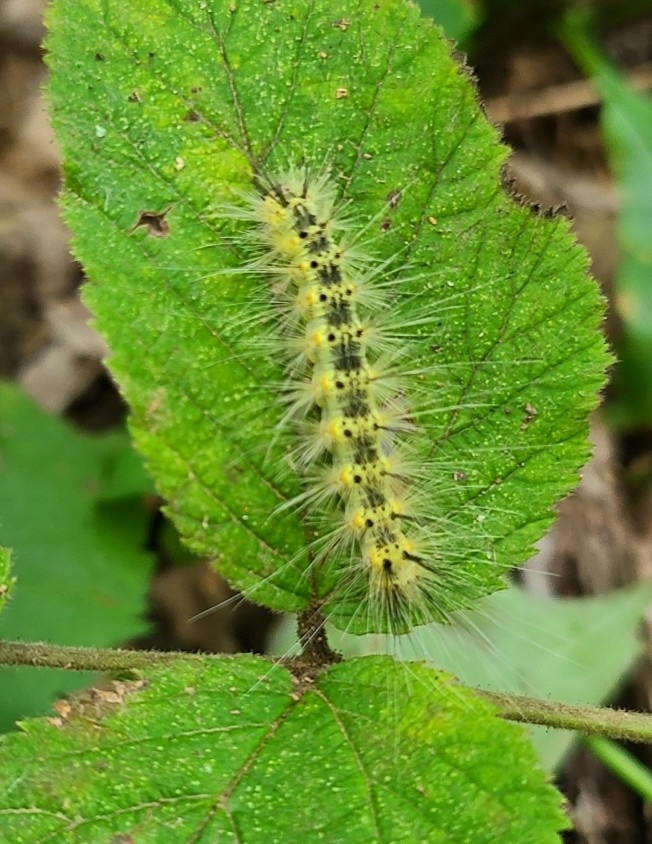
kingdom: Animalia
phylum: Arthropoda
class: Insecta
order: Lepidoptera
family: Erebidae
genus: Hyphantria
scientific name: Hyphantria cunea
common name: American white moth
